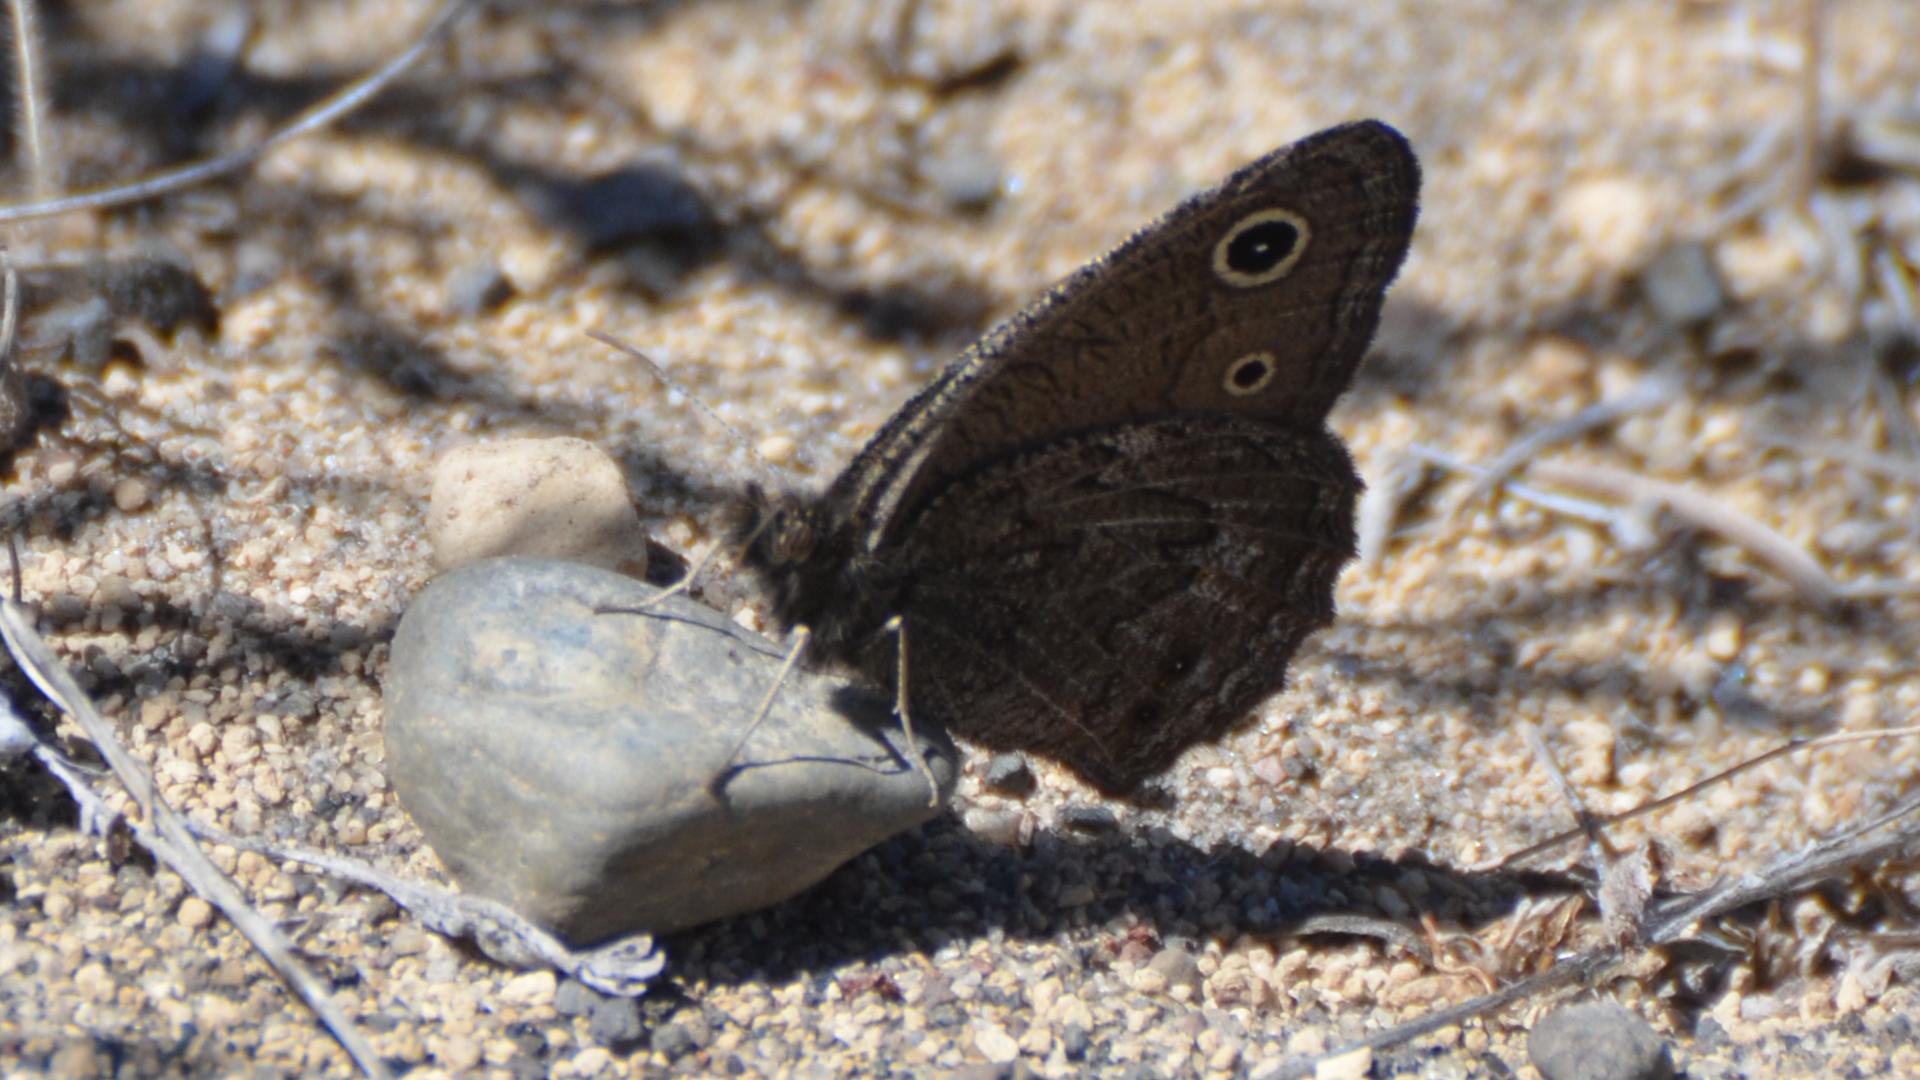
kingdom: Animalia
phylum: Arthropoda
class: Insecta
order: Lepidoptera
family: Nymphalidae
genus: Cercyonis
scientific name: Cercyonis oetus
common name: Small wood-nymph
